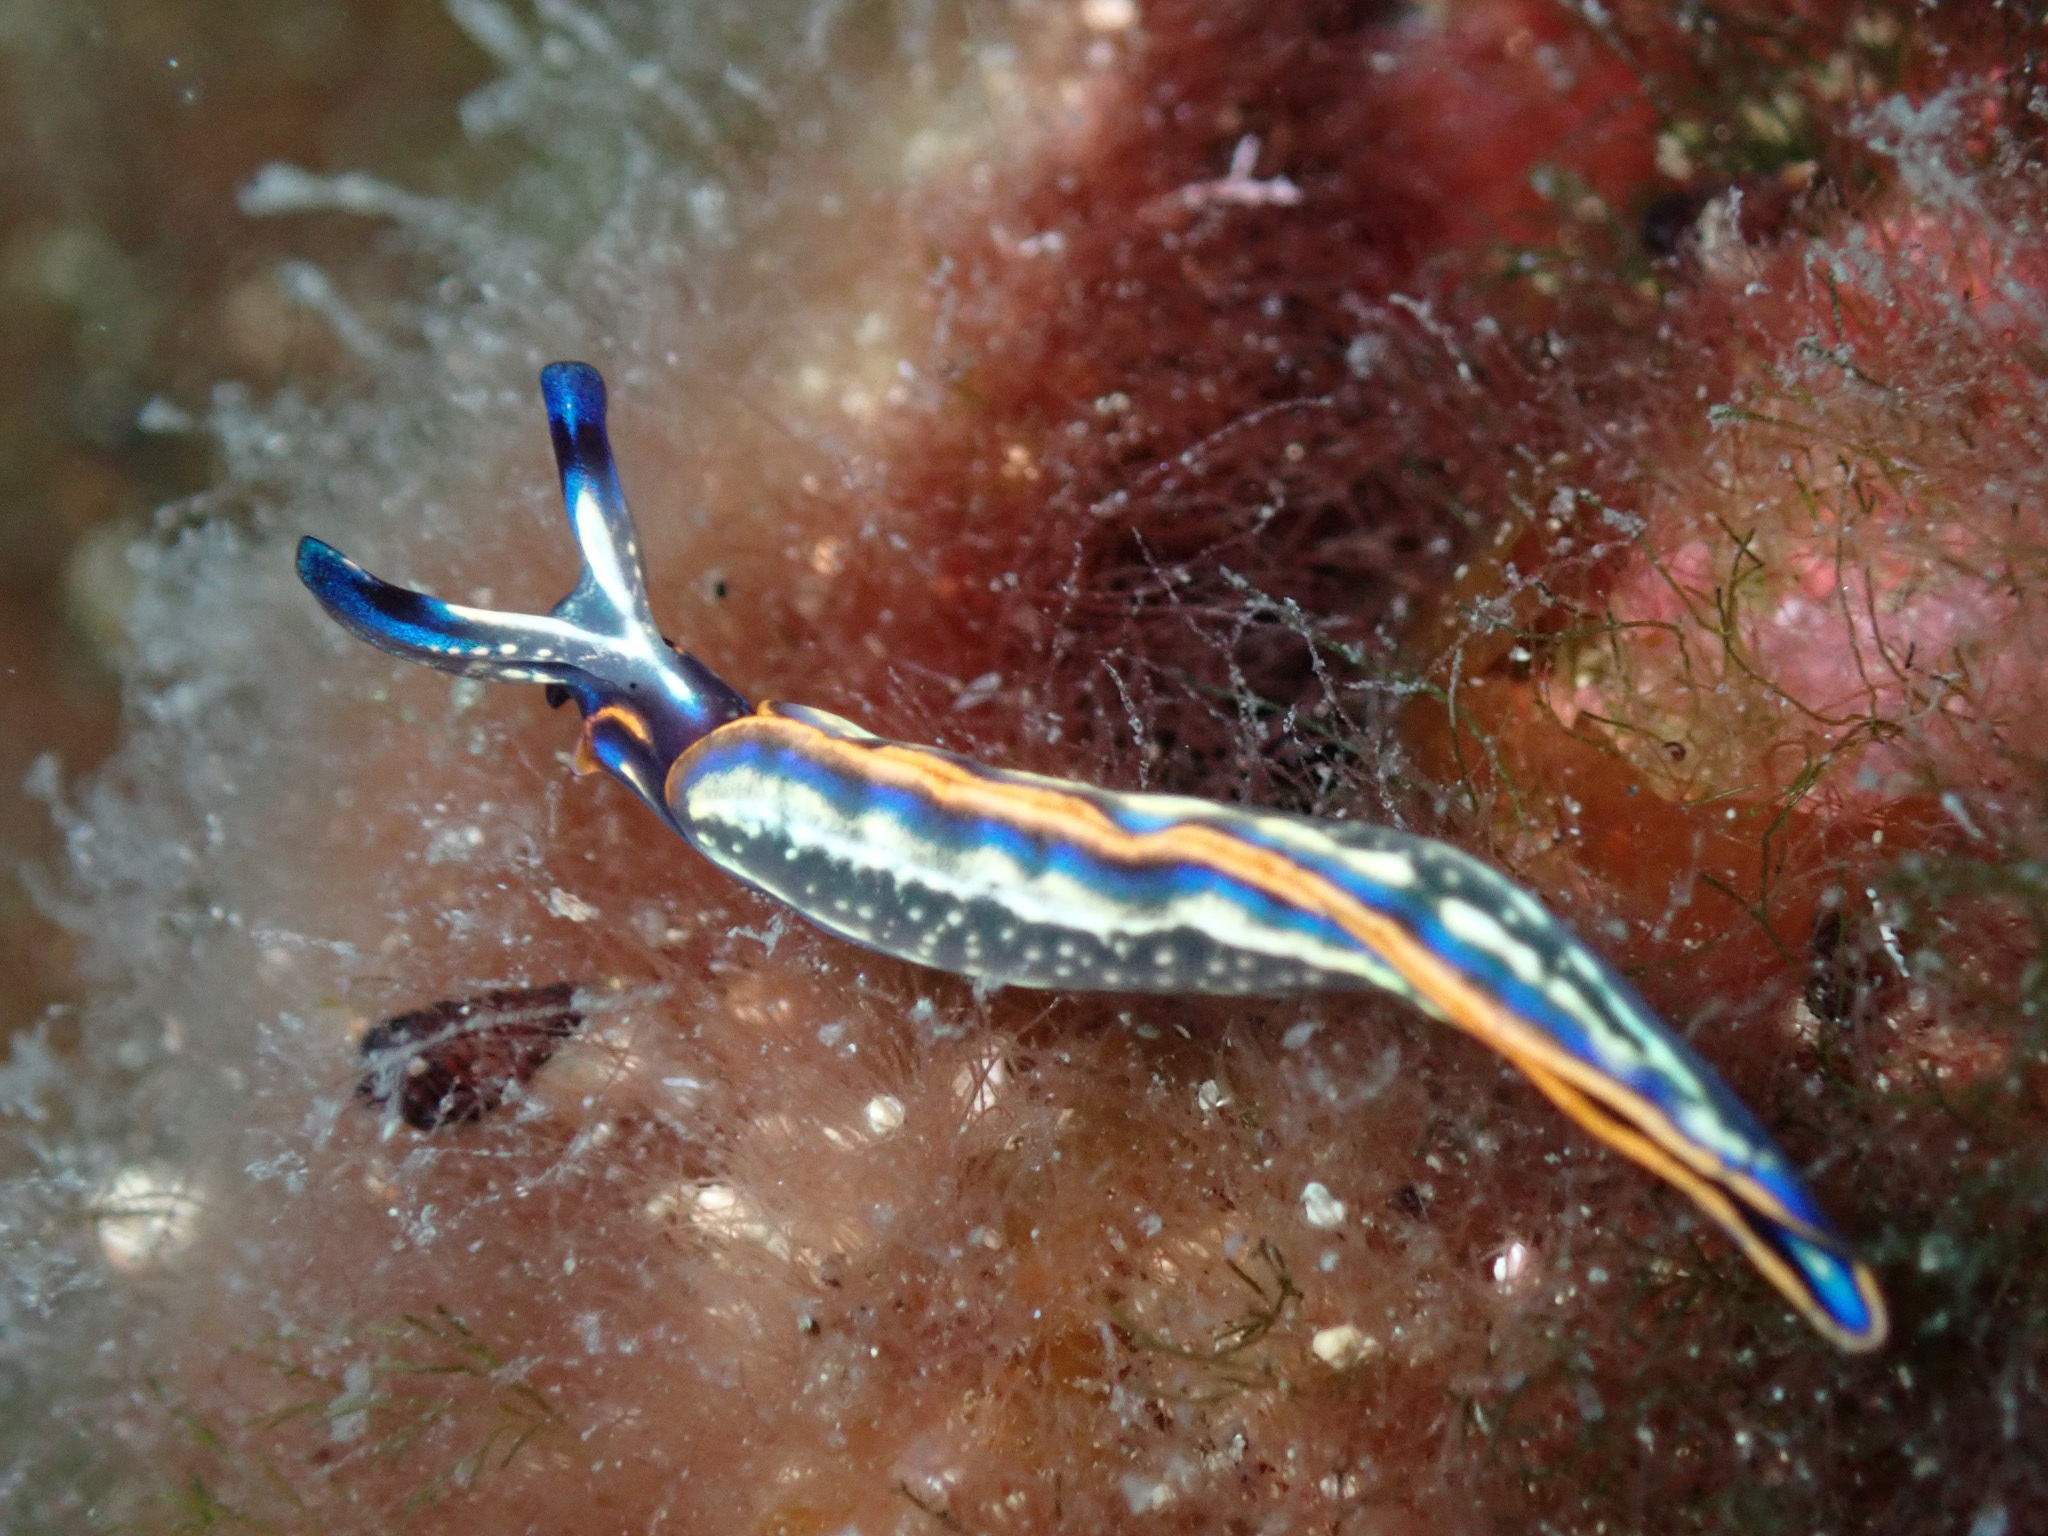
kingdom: Animalia
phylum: Mollusca
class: Gastropoda
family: Plakobranchidae
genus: Thuridilla
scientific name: Thuridilla hopei
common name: Splendid elysia
